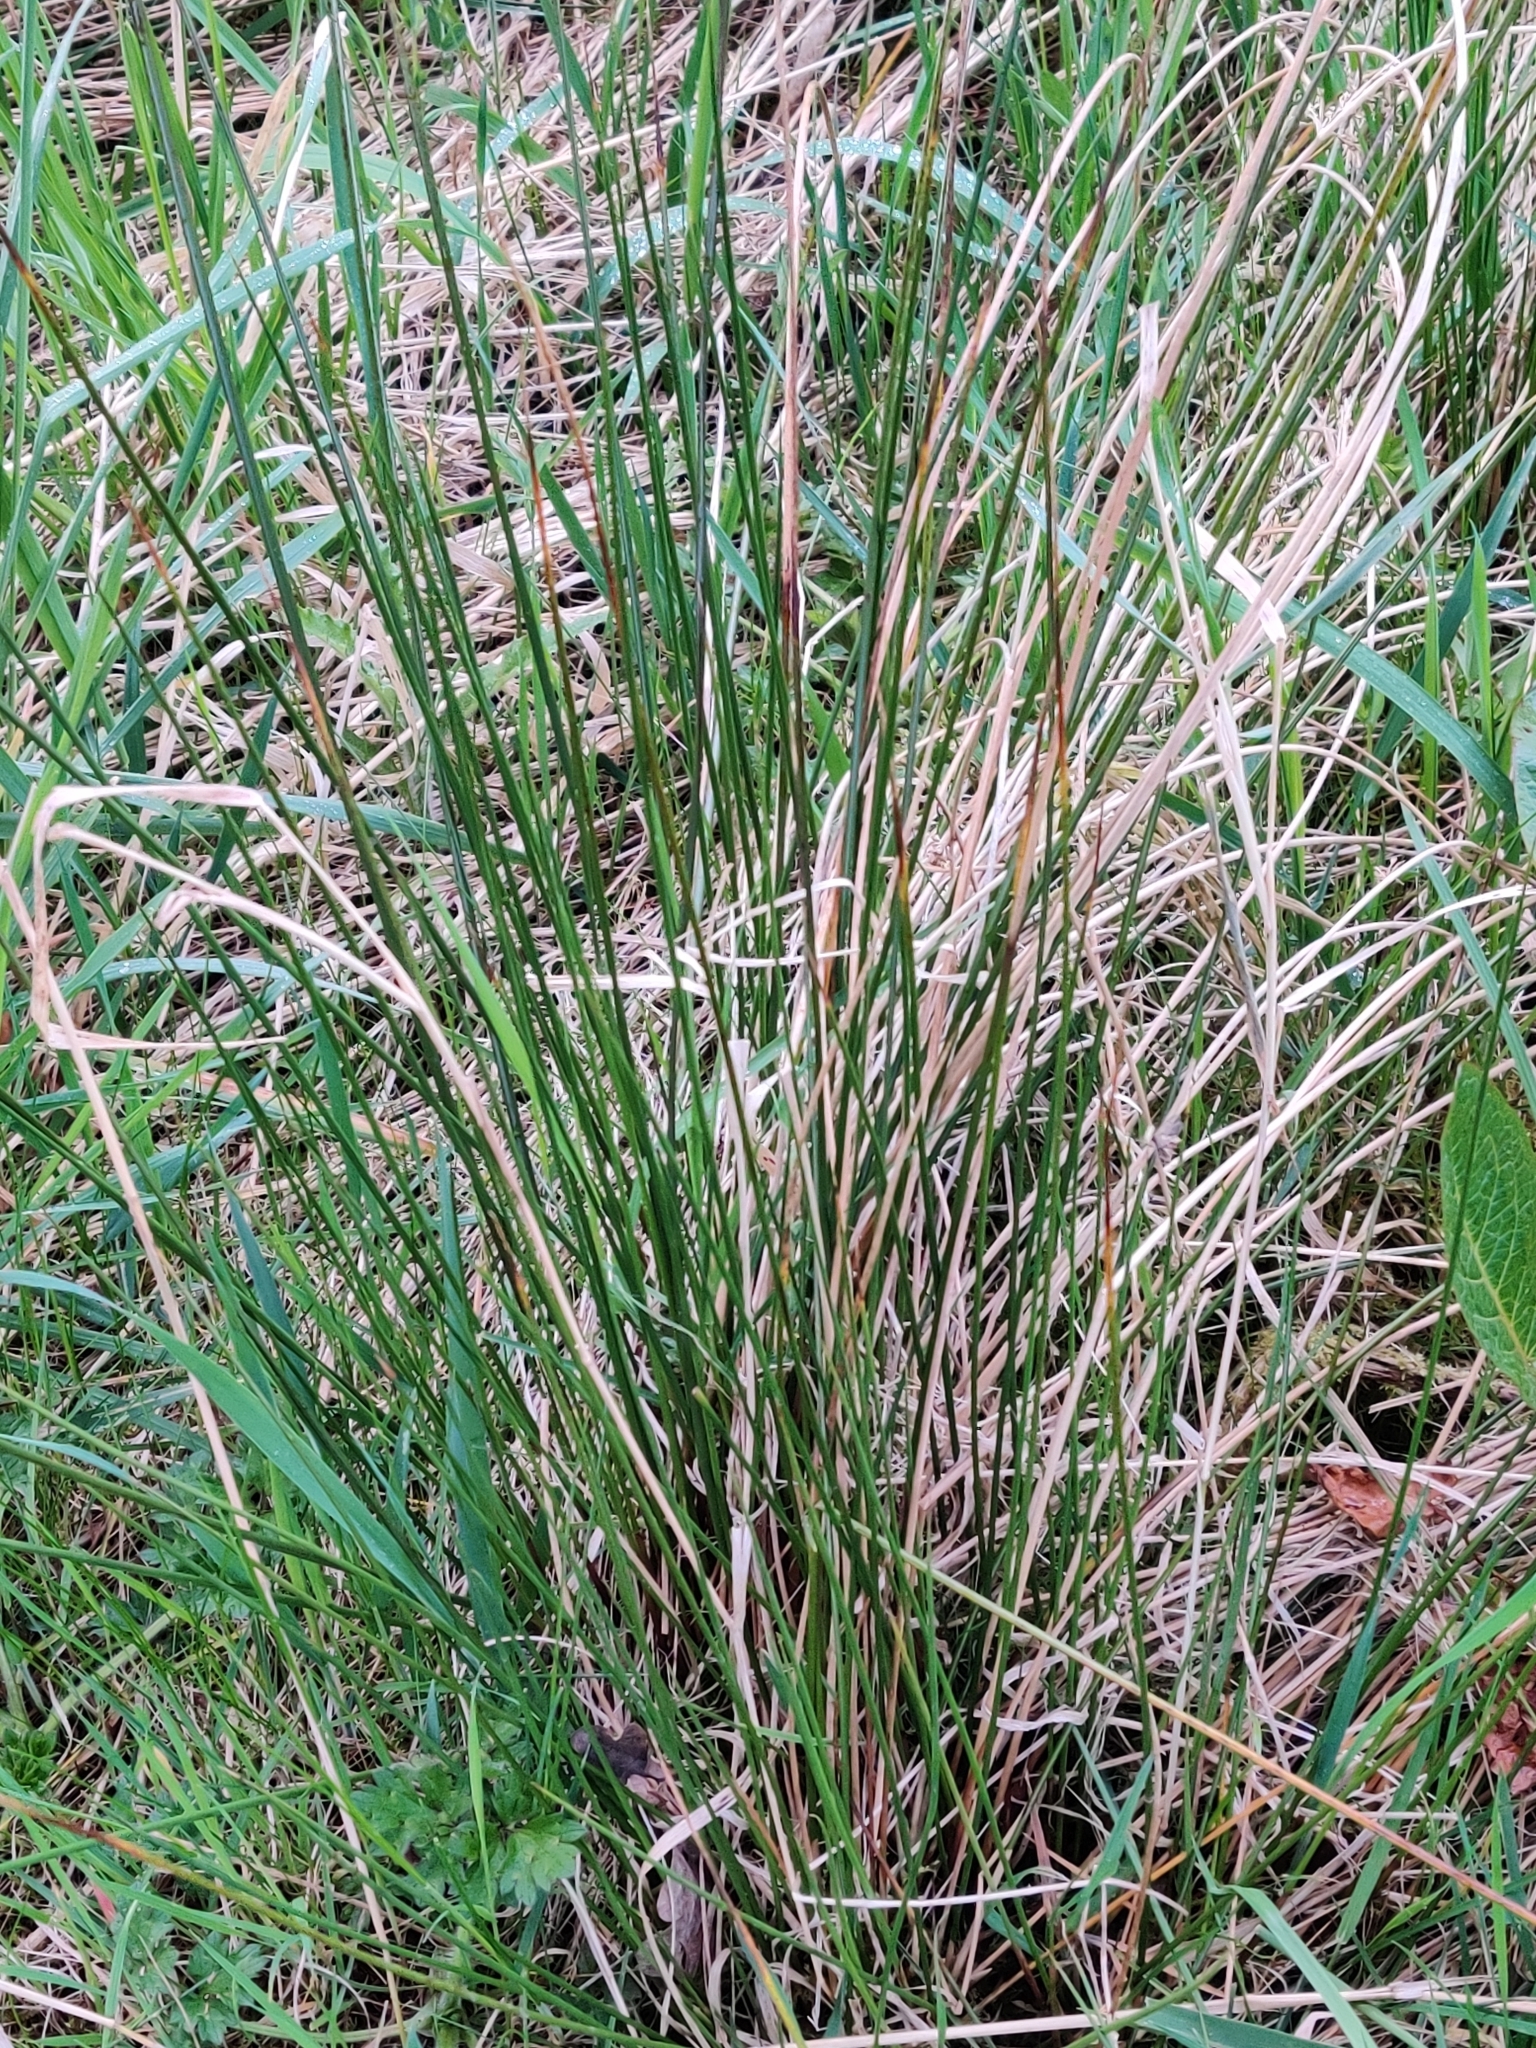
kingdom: Plantae
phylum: Tracheophyta
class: Liliopsida
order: Poales
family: Juncaceae
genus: Juncus
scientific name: Juncus effusus
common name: Soft rush
